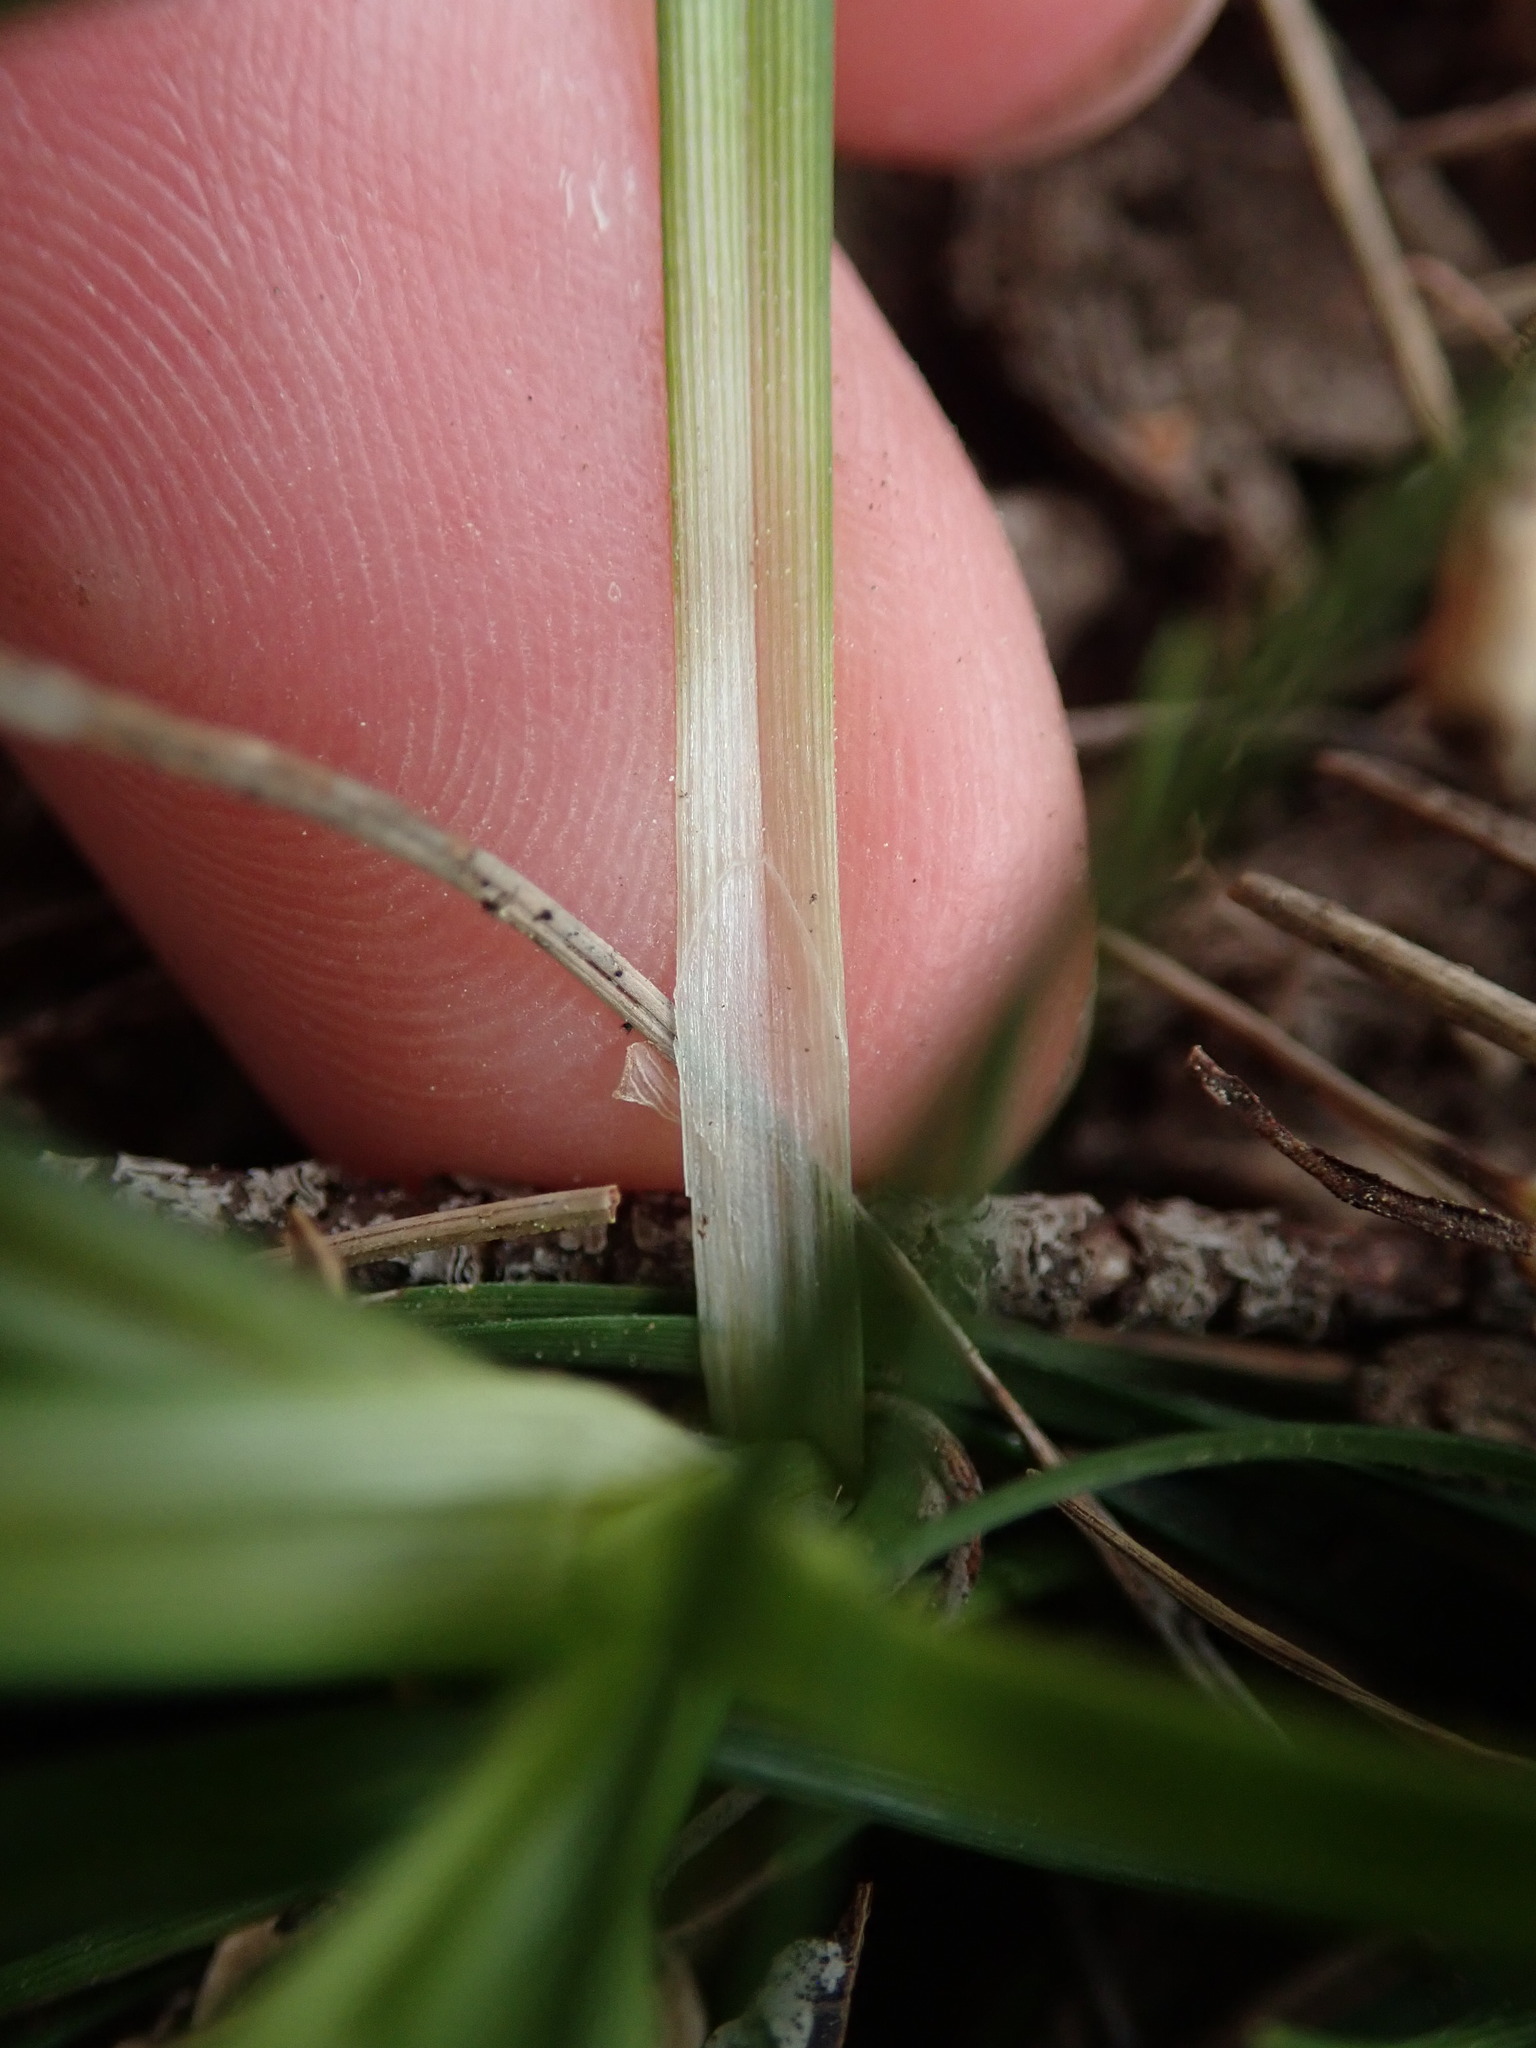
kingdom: Plantae
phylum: Tracheophyta
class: Liliopsida
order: Poales
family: Cyperaceae
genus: Carex
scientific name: Carex halleriana
